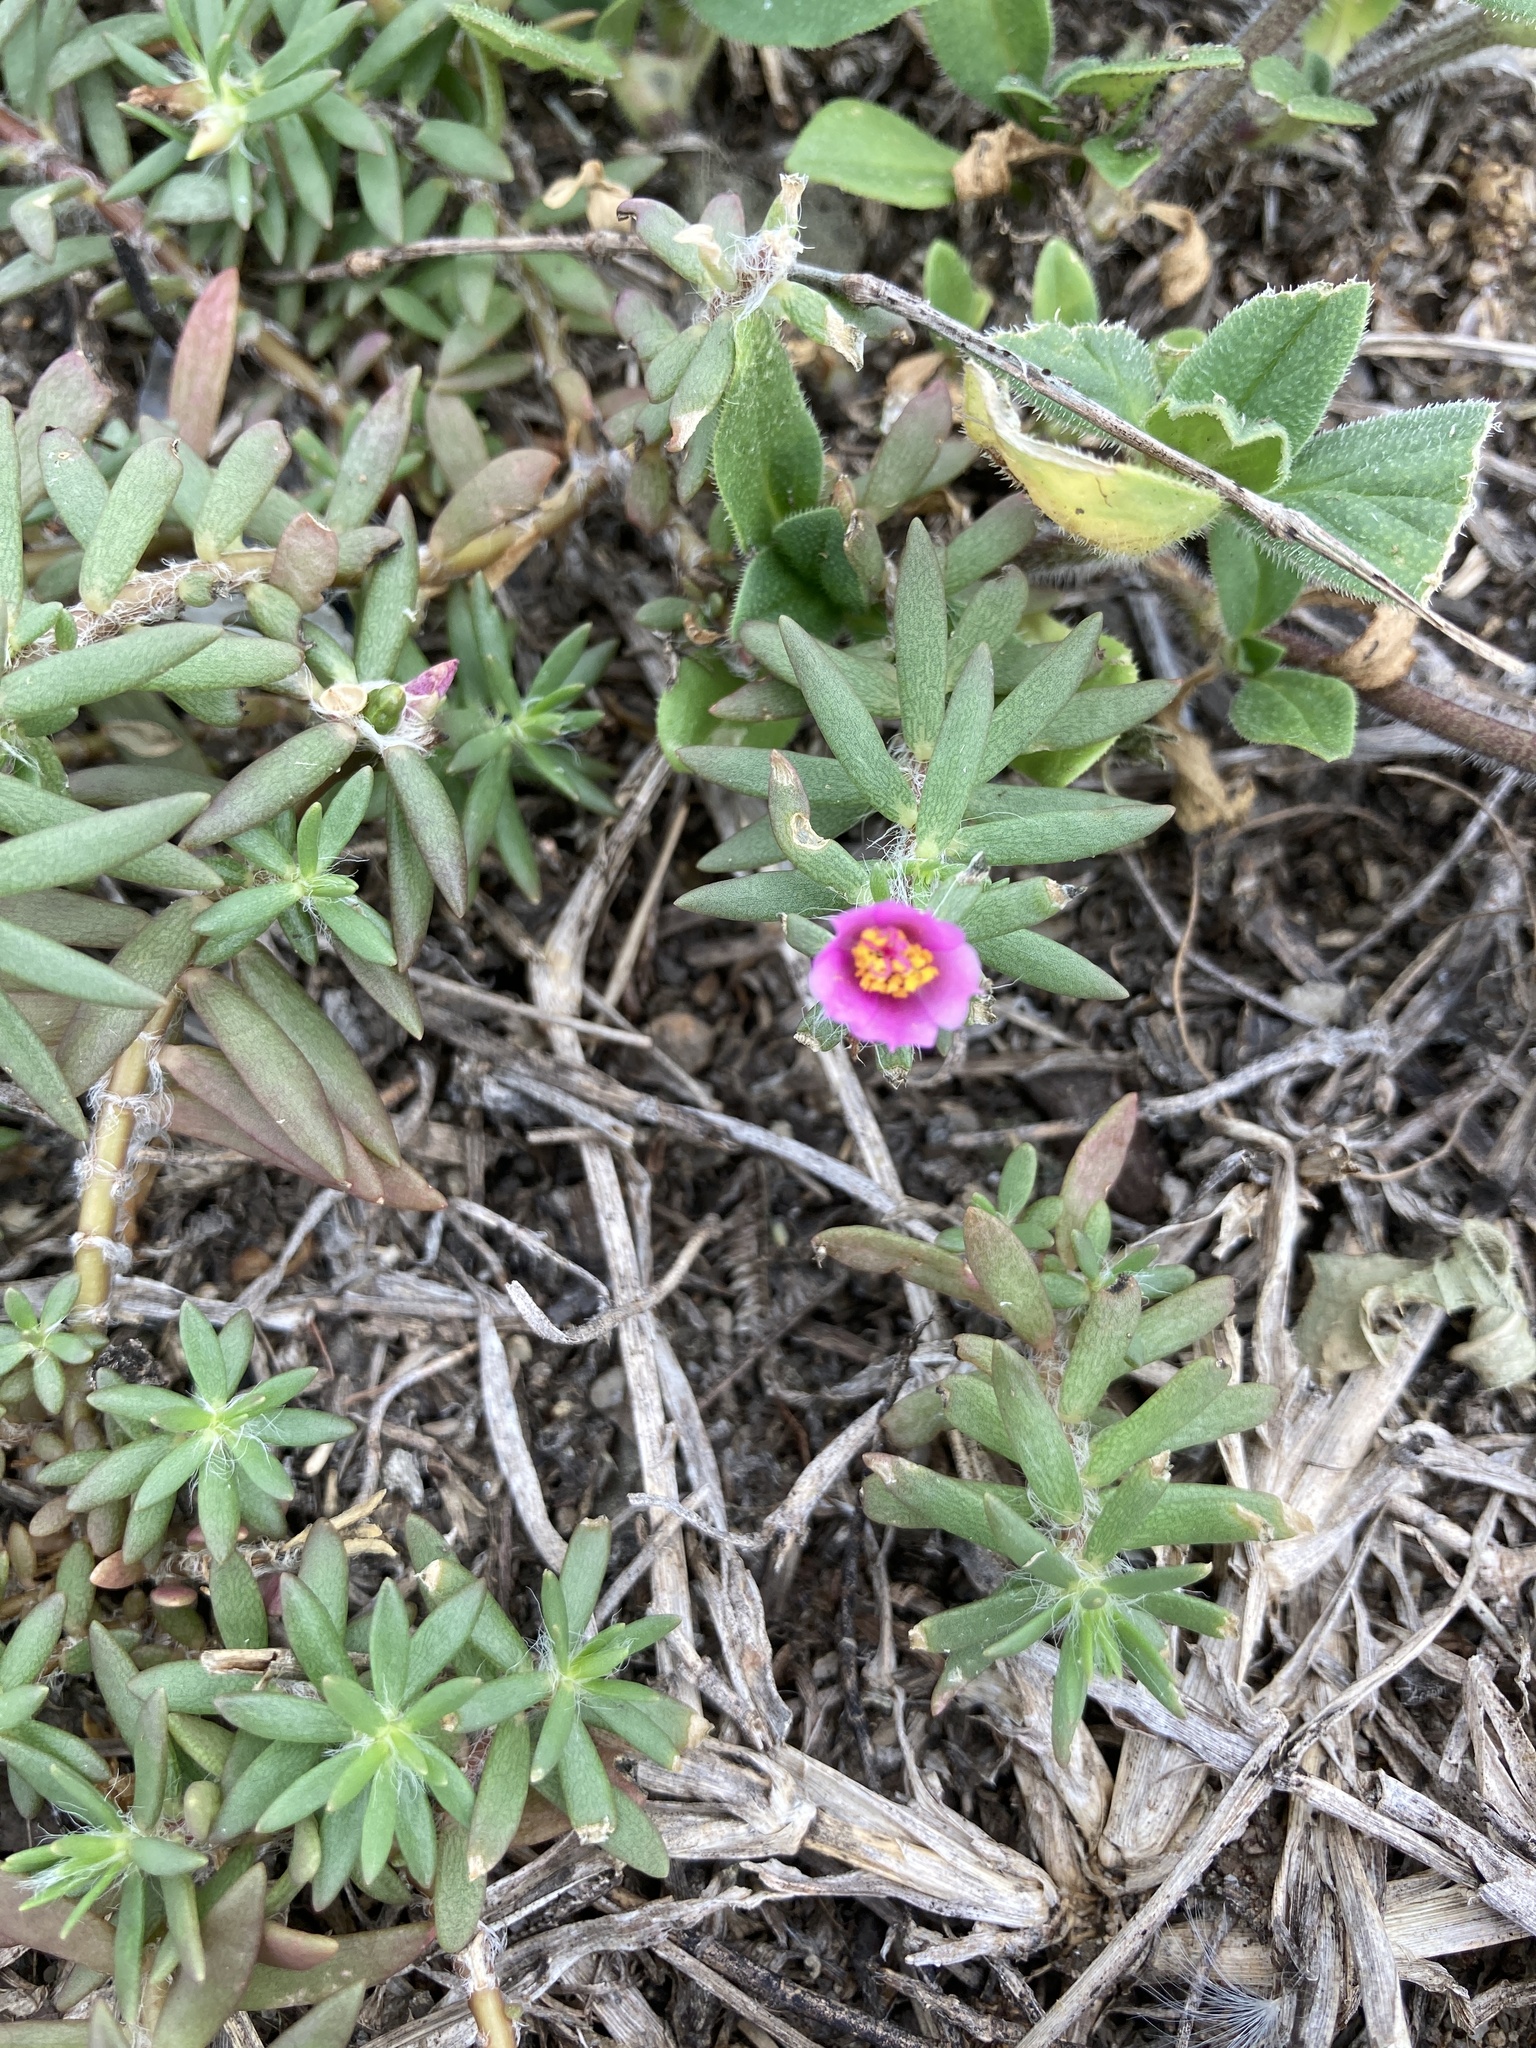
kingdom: Plantae
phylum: Tracheophyta
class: Magnoliopsida
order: Caryophyllales
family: Portulacaceae
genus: Portulaca
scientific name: Portulaca pilosa
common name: Kiss me quick
